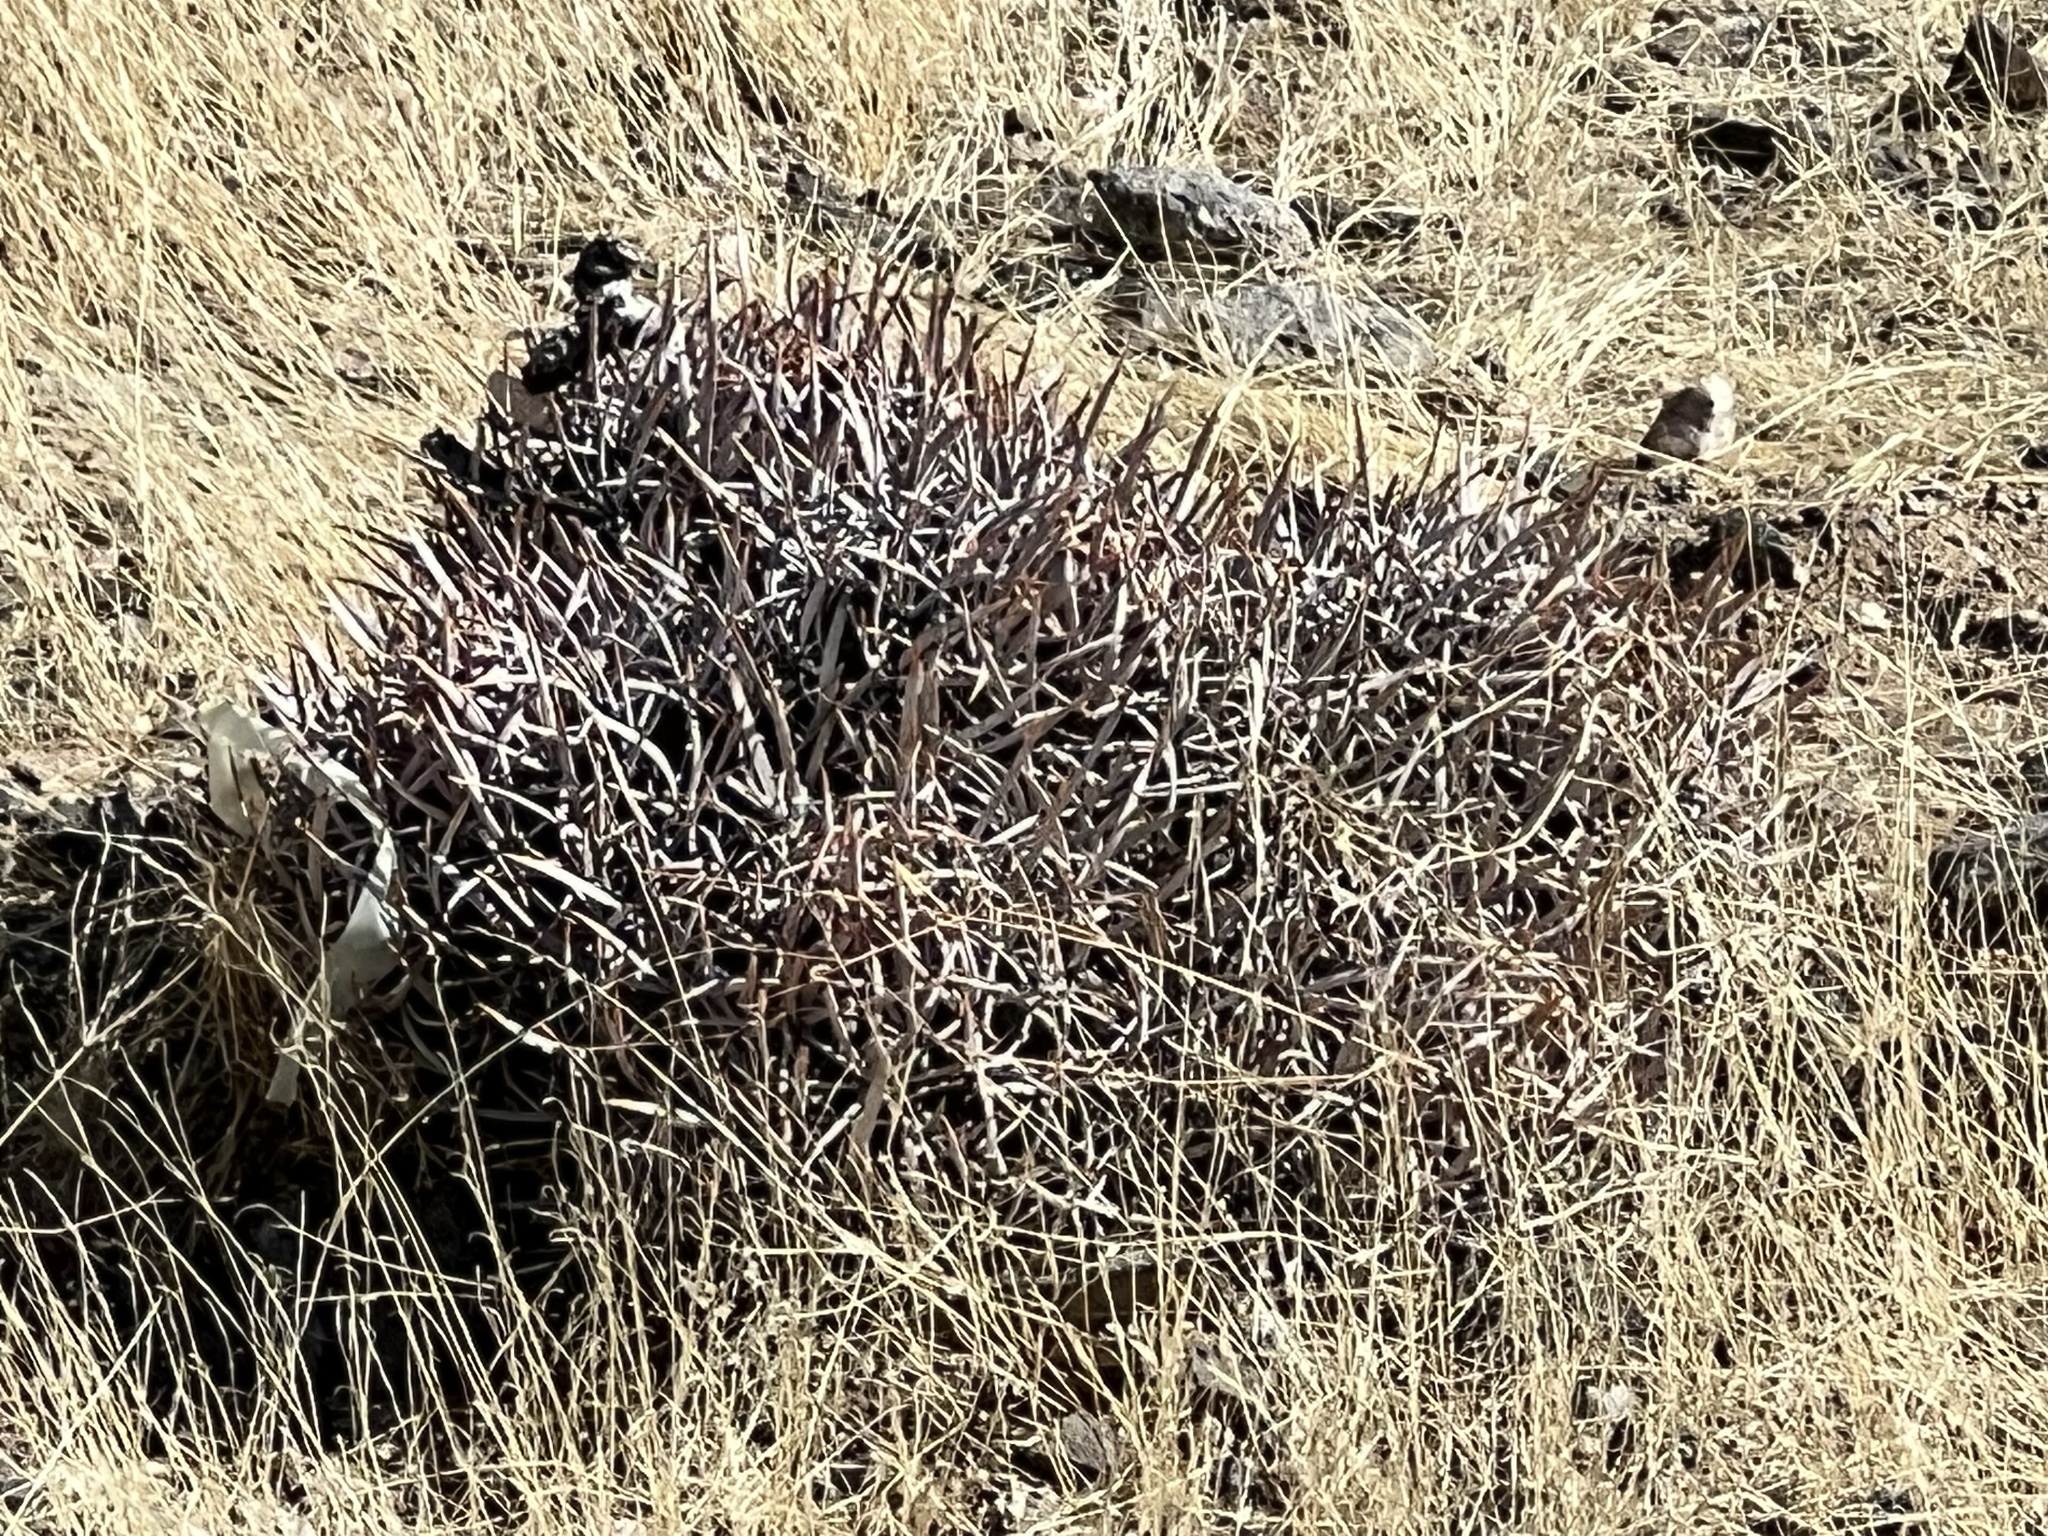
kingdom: Plantae
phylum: Tracheophyta
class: Magnoliopsida
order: Caryophyllales
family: Cactaceae
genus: Echinocactus
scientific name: Echinocactus polycephalus
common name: Cottontop cactus
